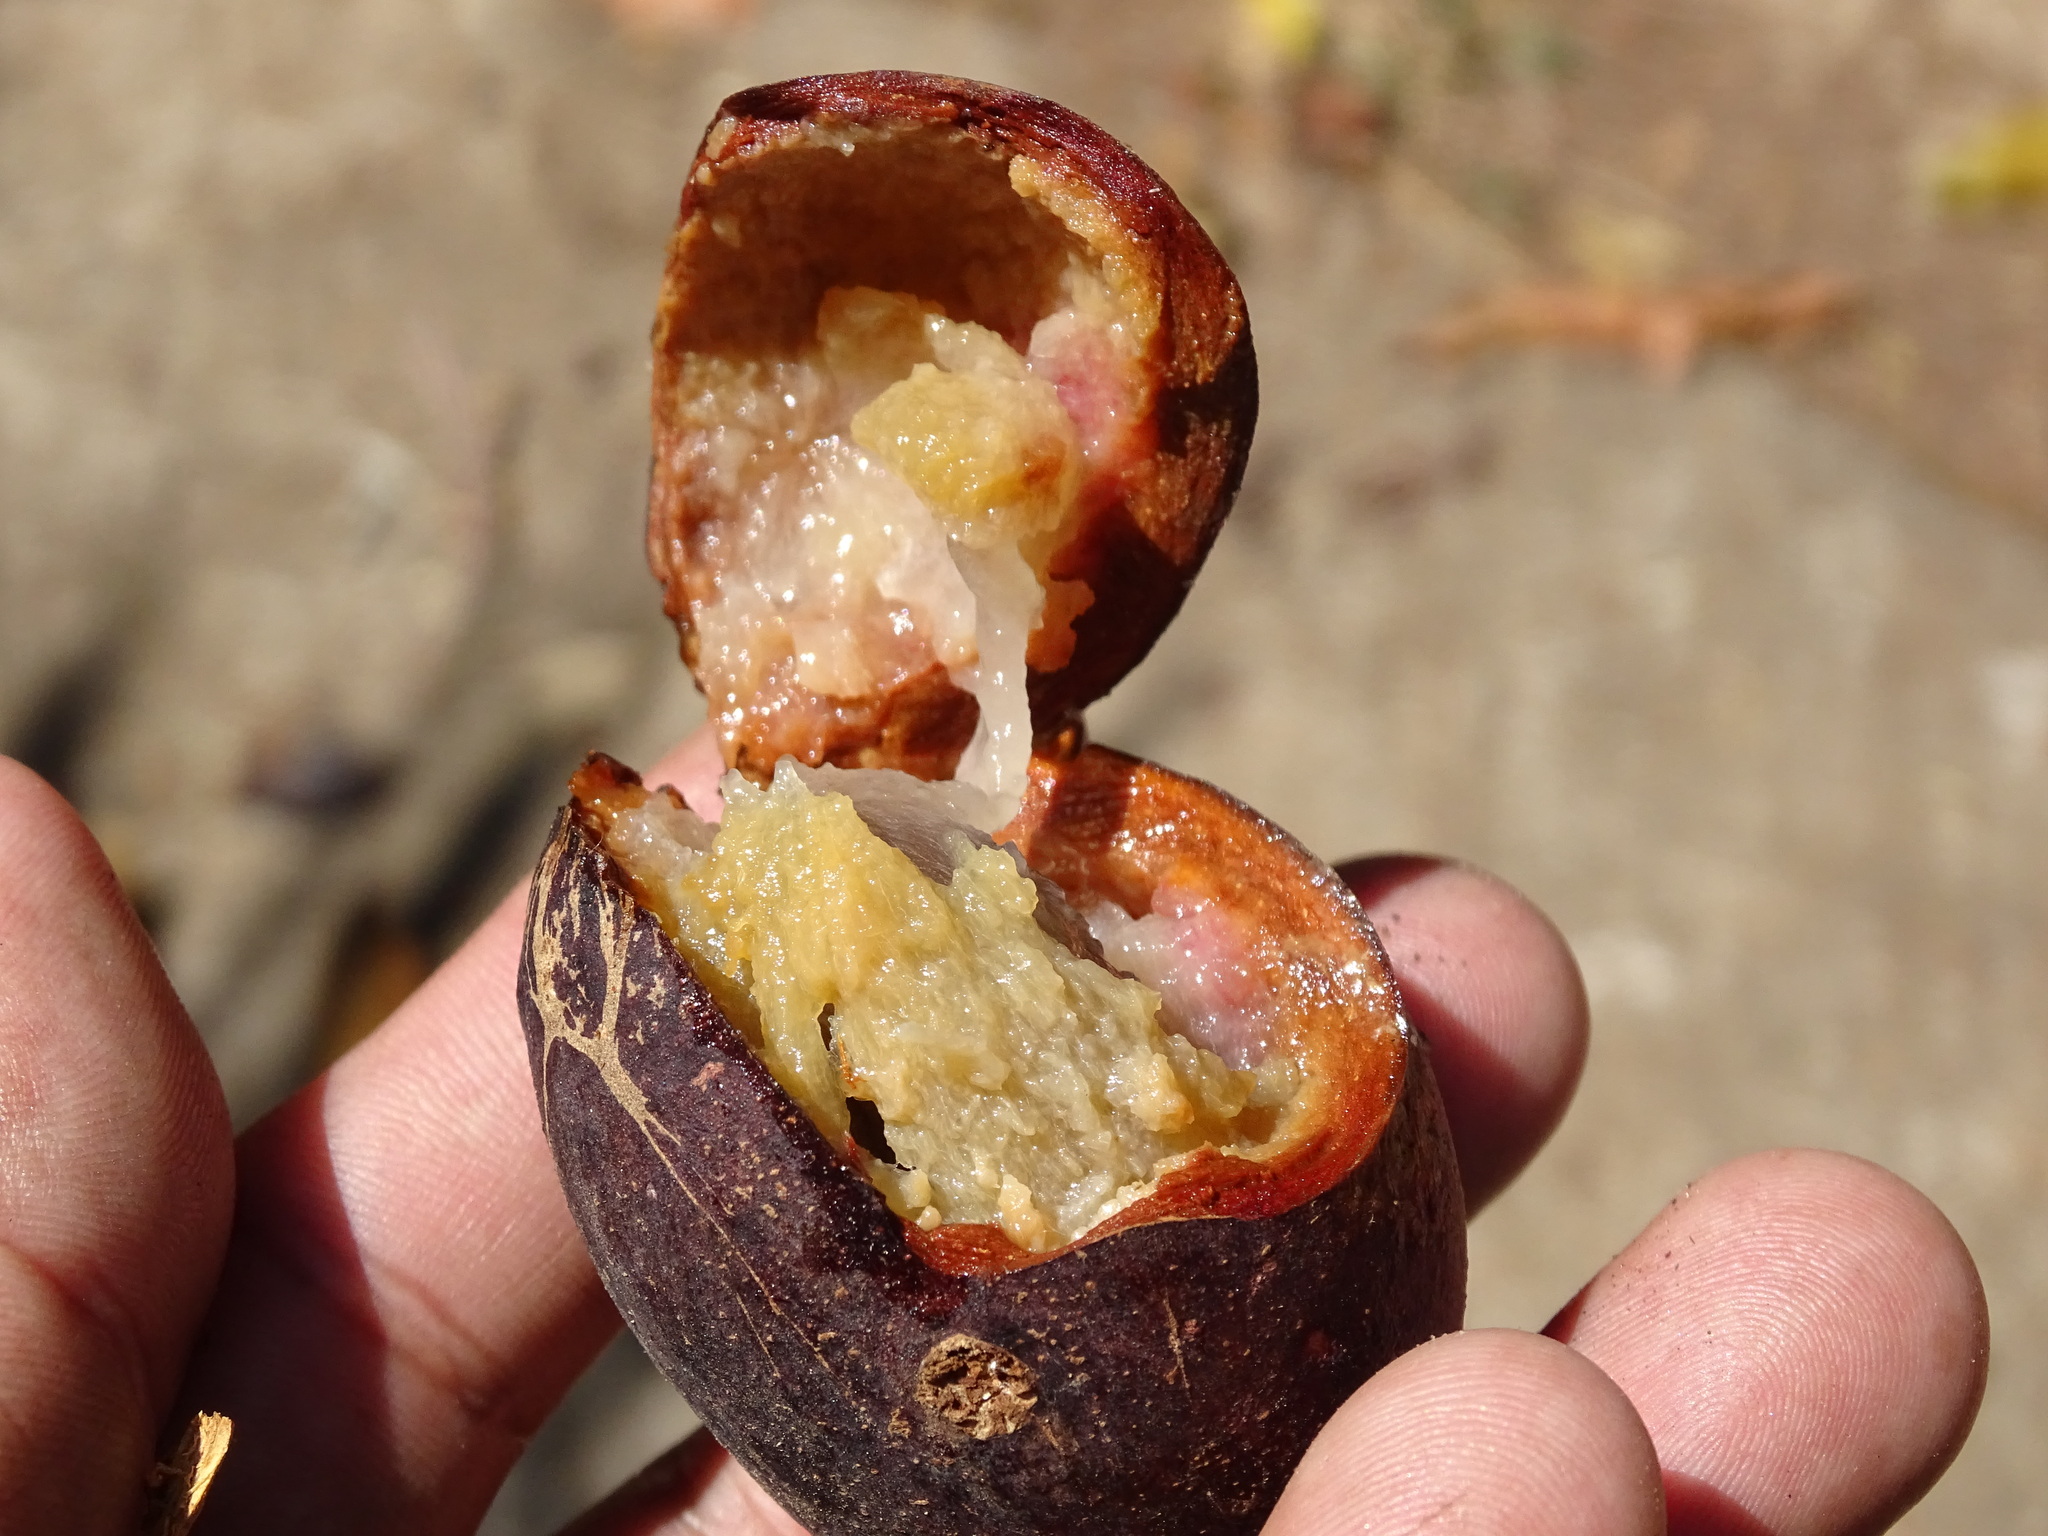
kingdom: Plantae
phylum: Tracheophyta
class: Magnoliopsida
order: Ericales
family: Sapotaceae
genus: Pouteria
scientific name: Pouteria briocheoides
